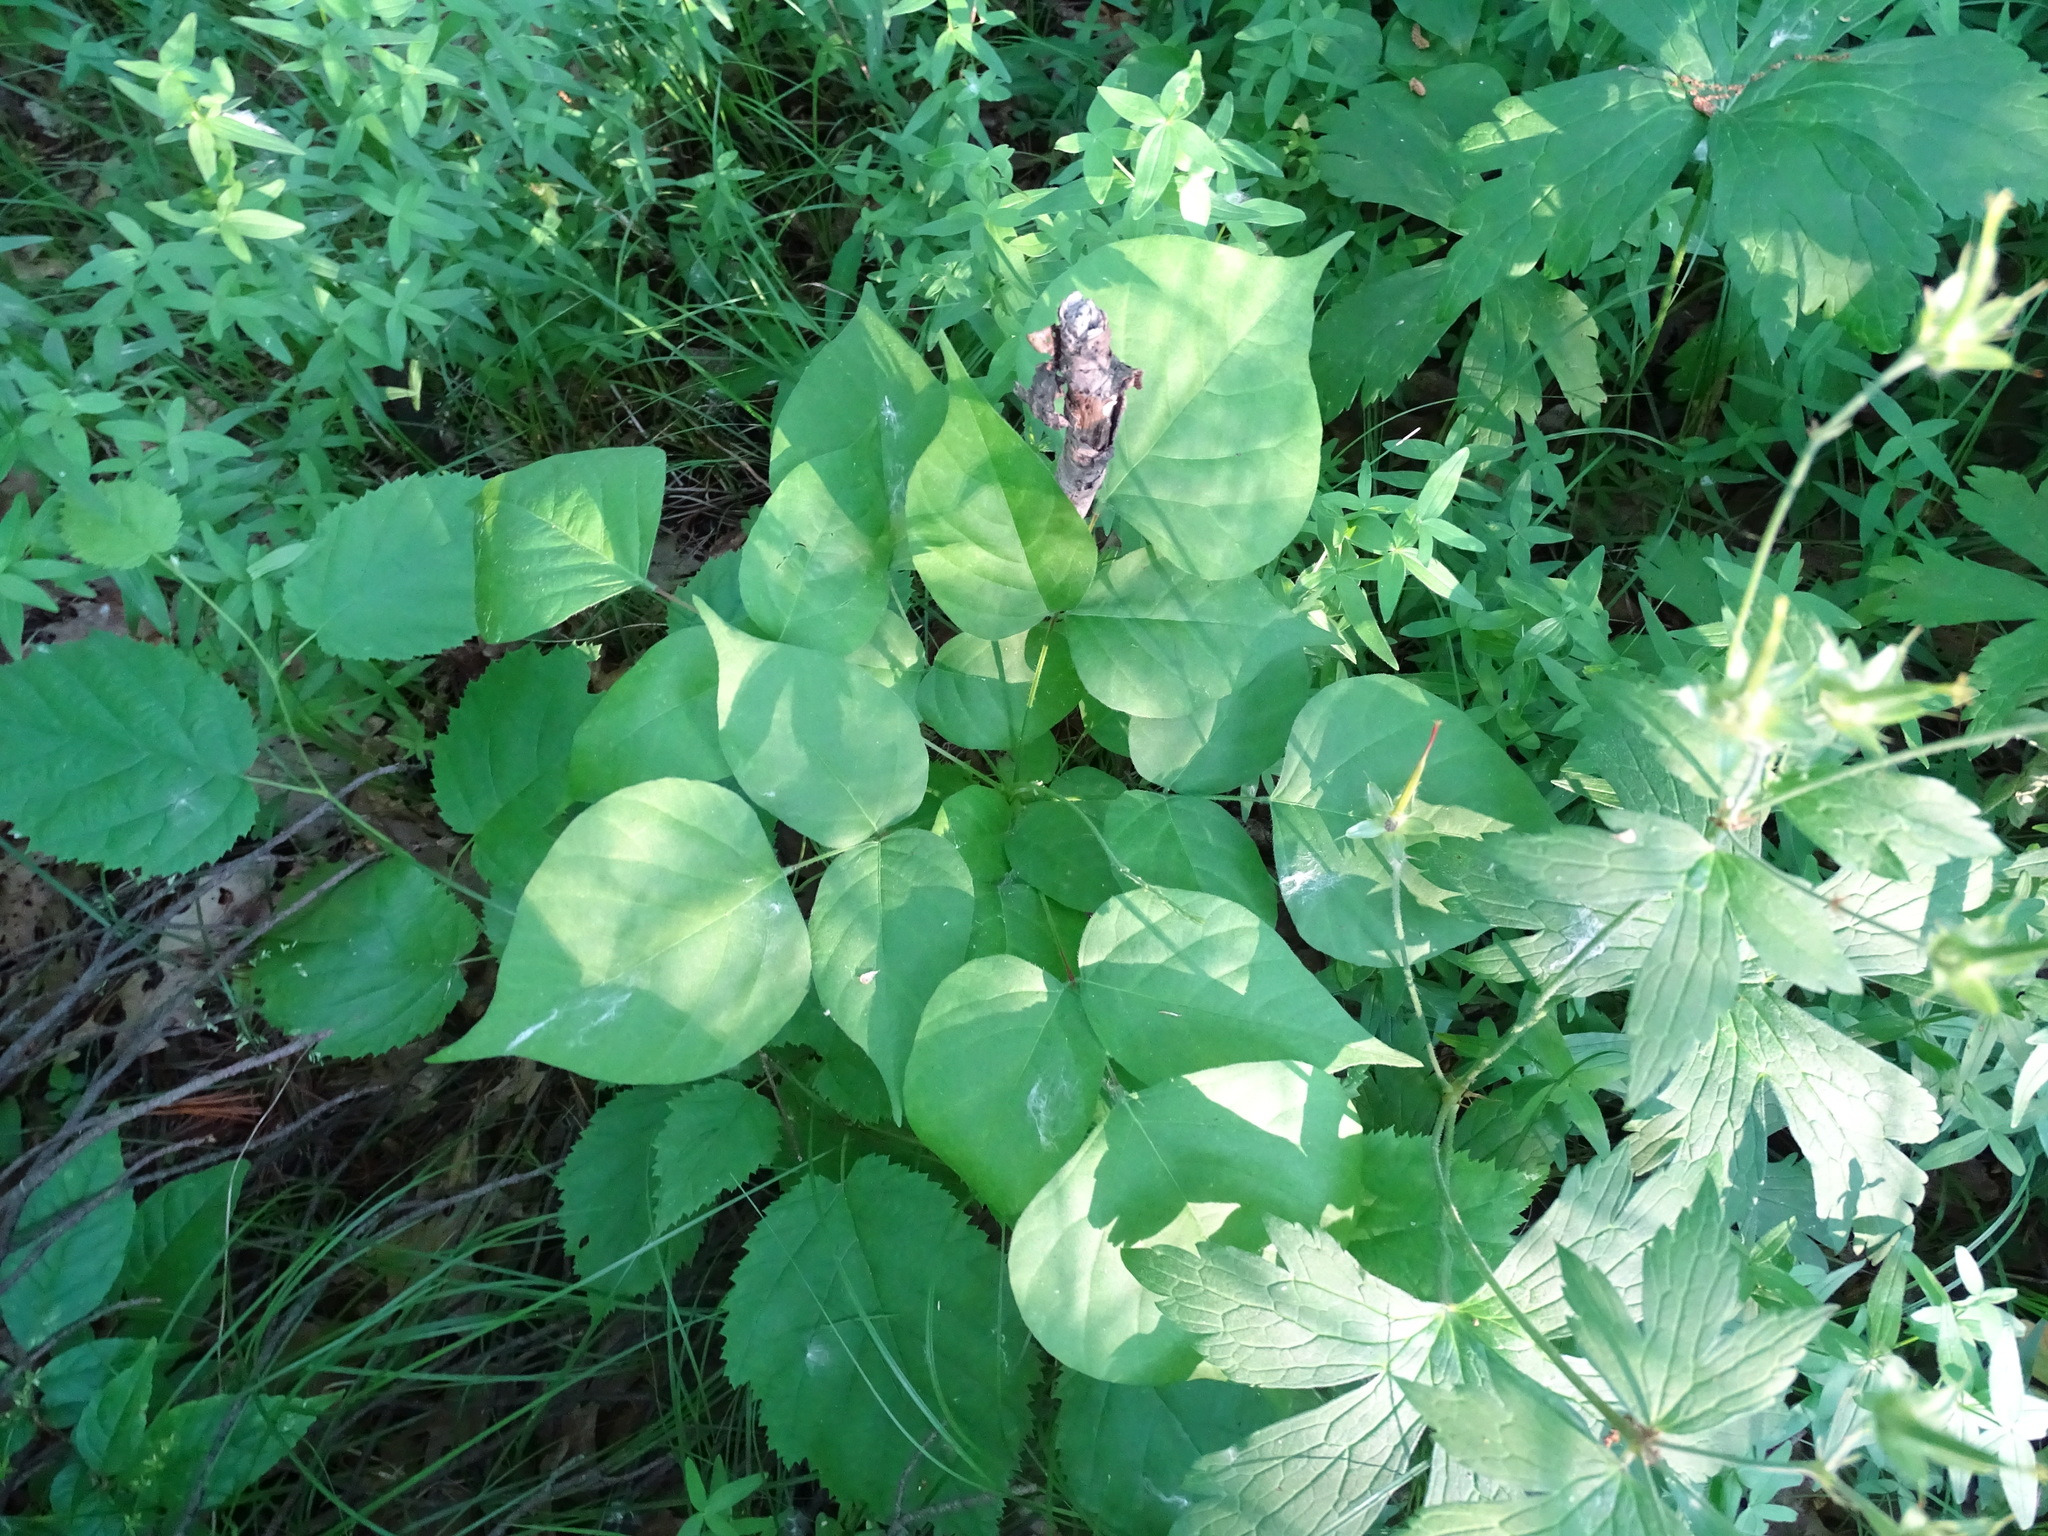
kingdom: Plantae
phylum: Tracheophyta
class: Magnoliopsida
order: Fabales
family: Fabaceae
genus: Hylodesmum
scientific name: Hylodesmum glutinosum
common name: Clustered-leaved tick-trefoil
